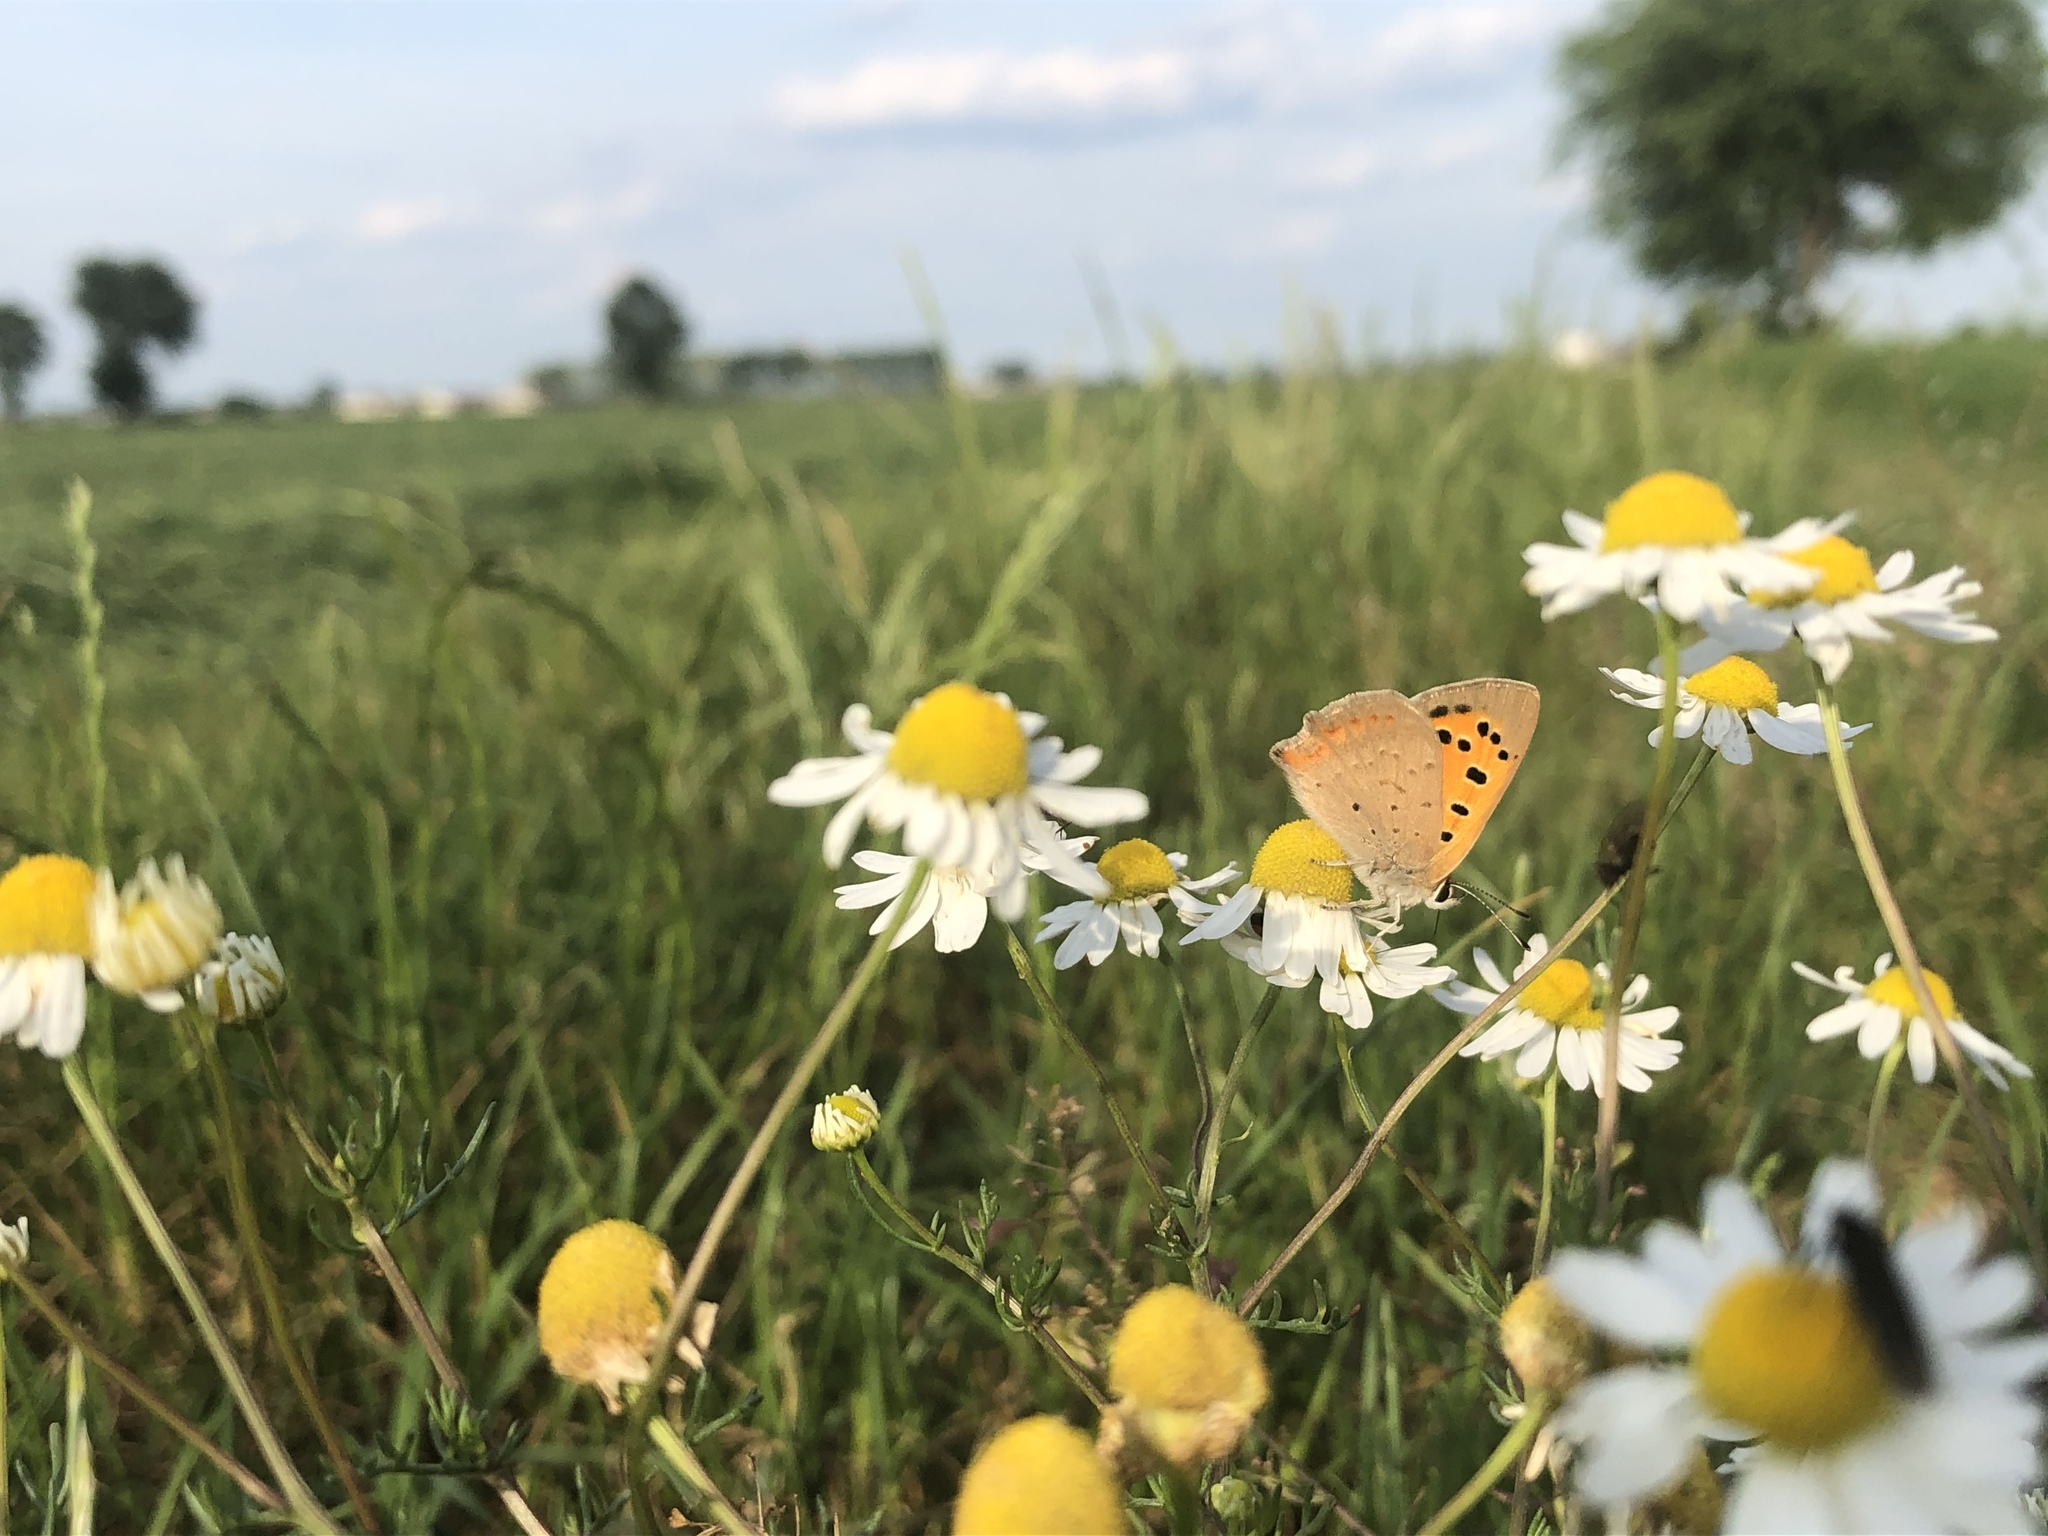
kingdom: Animalia
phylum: Arthropoda
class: Insecta
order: Lepidoptera
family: Lycaenidae
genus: Lycaena
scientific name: Lycaena phlaeas
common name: Small copper
